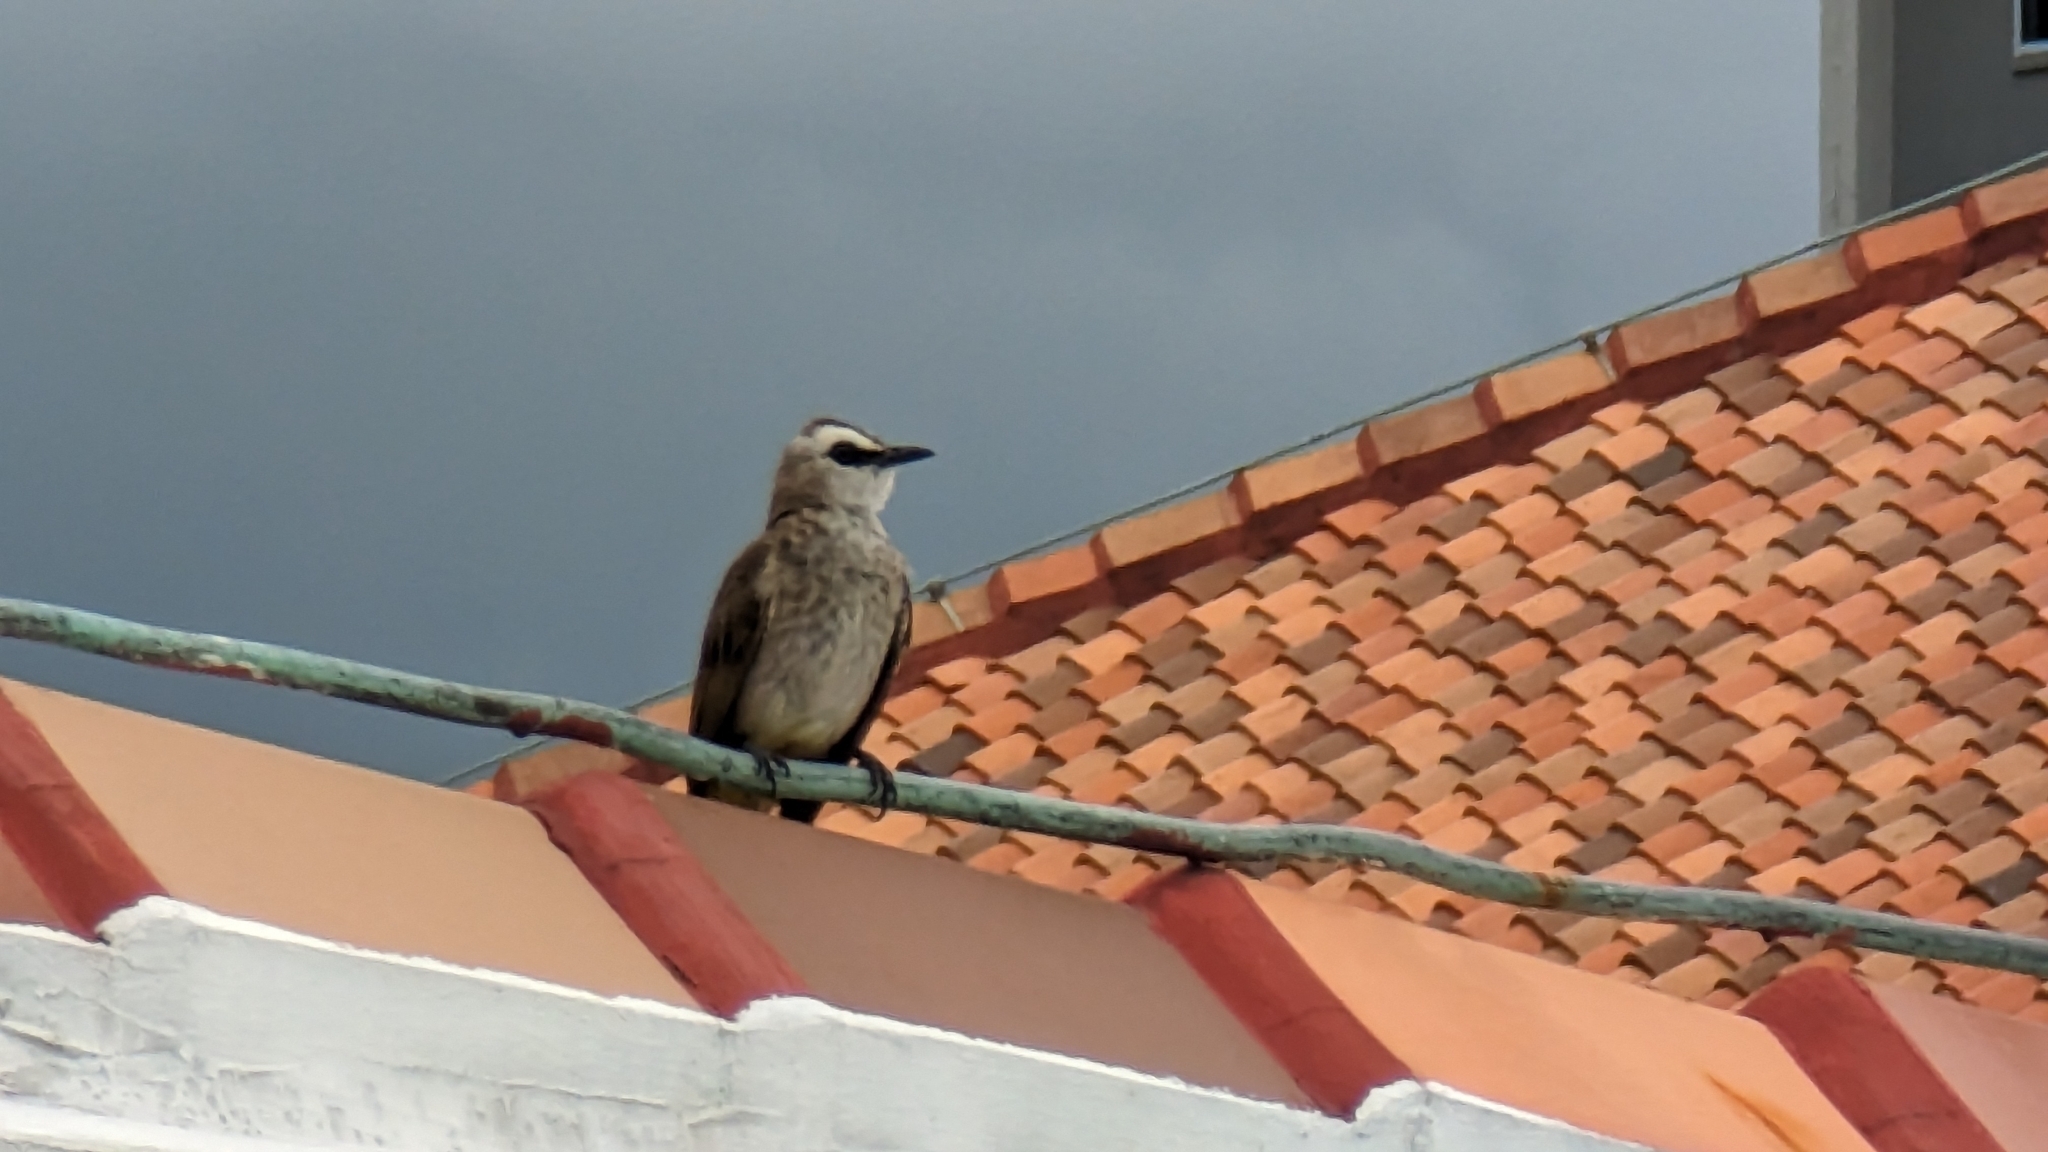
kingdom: Animalia
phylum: Chordata
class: Aves
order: Passeriformes
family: Pycnonotidae
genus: Pycnonotus
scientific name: Pycnonotus goiavier
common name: Yellow-vented bulbul
